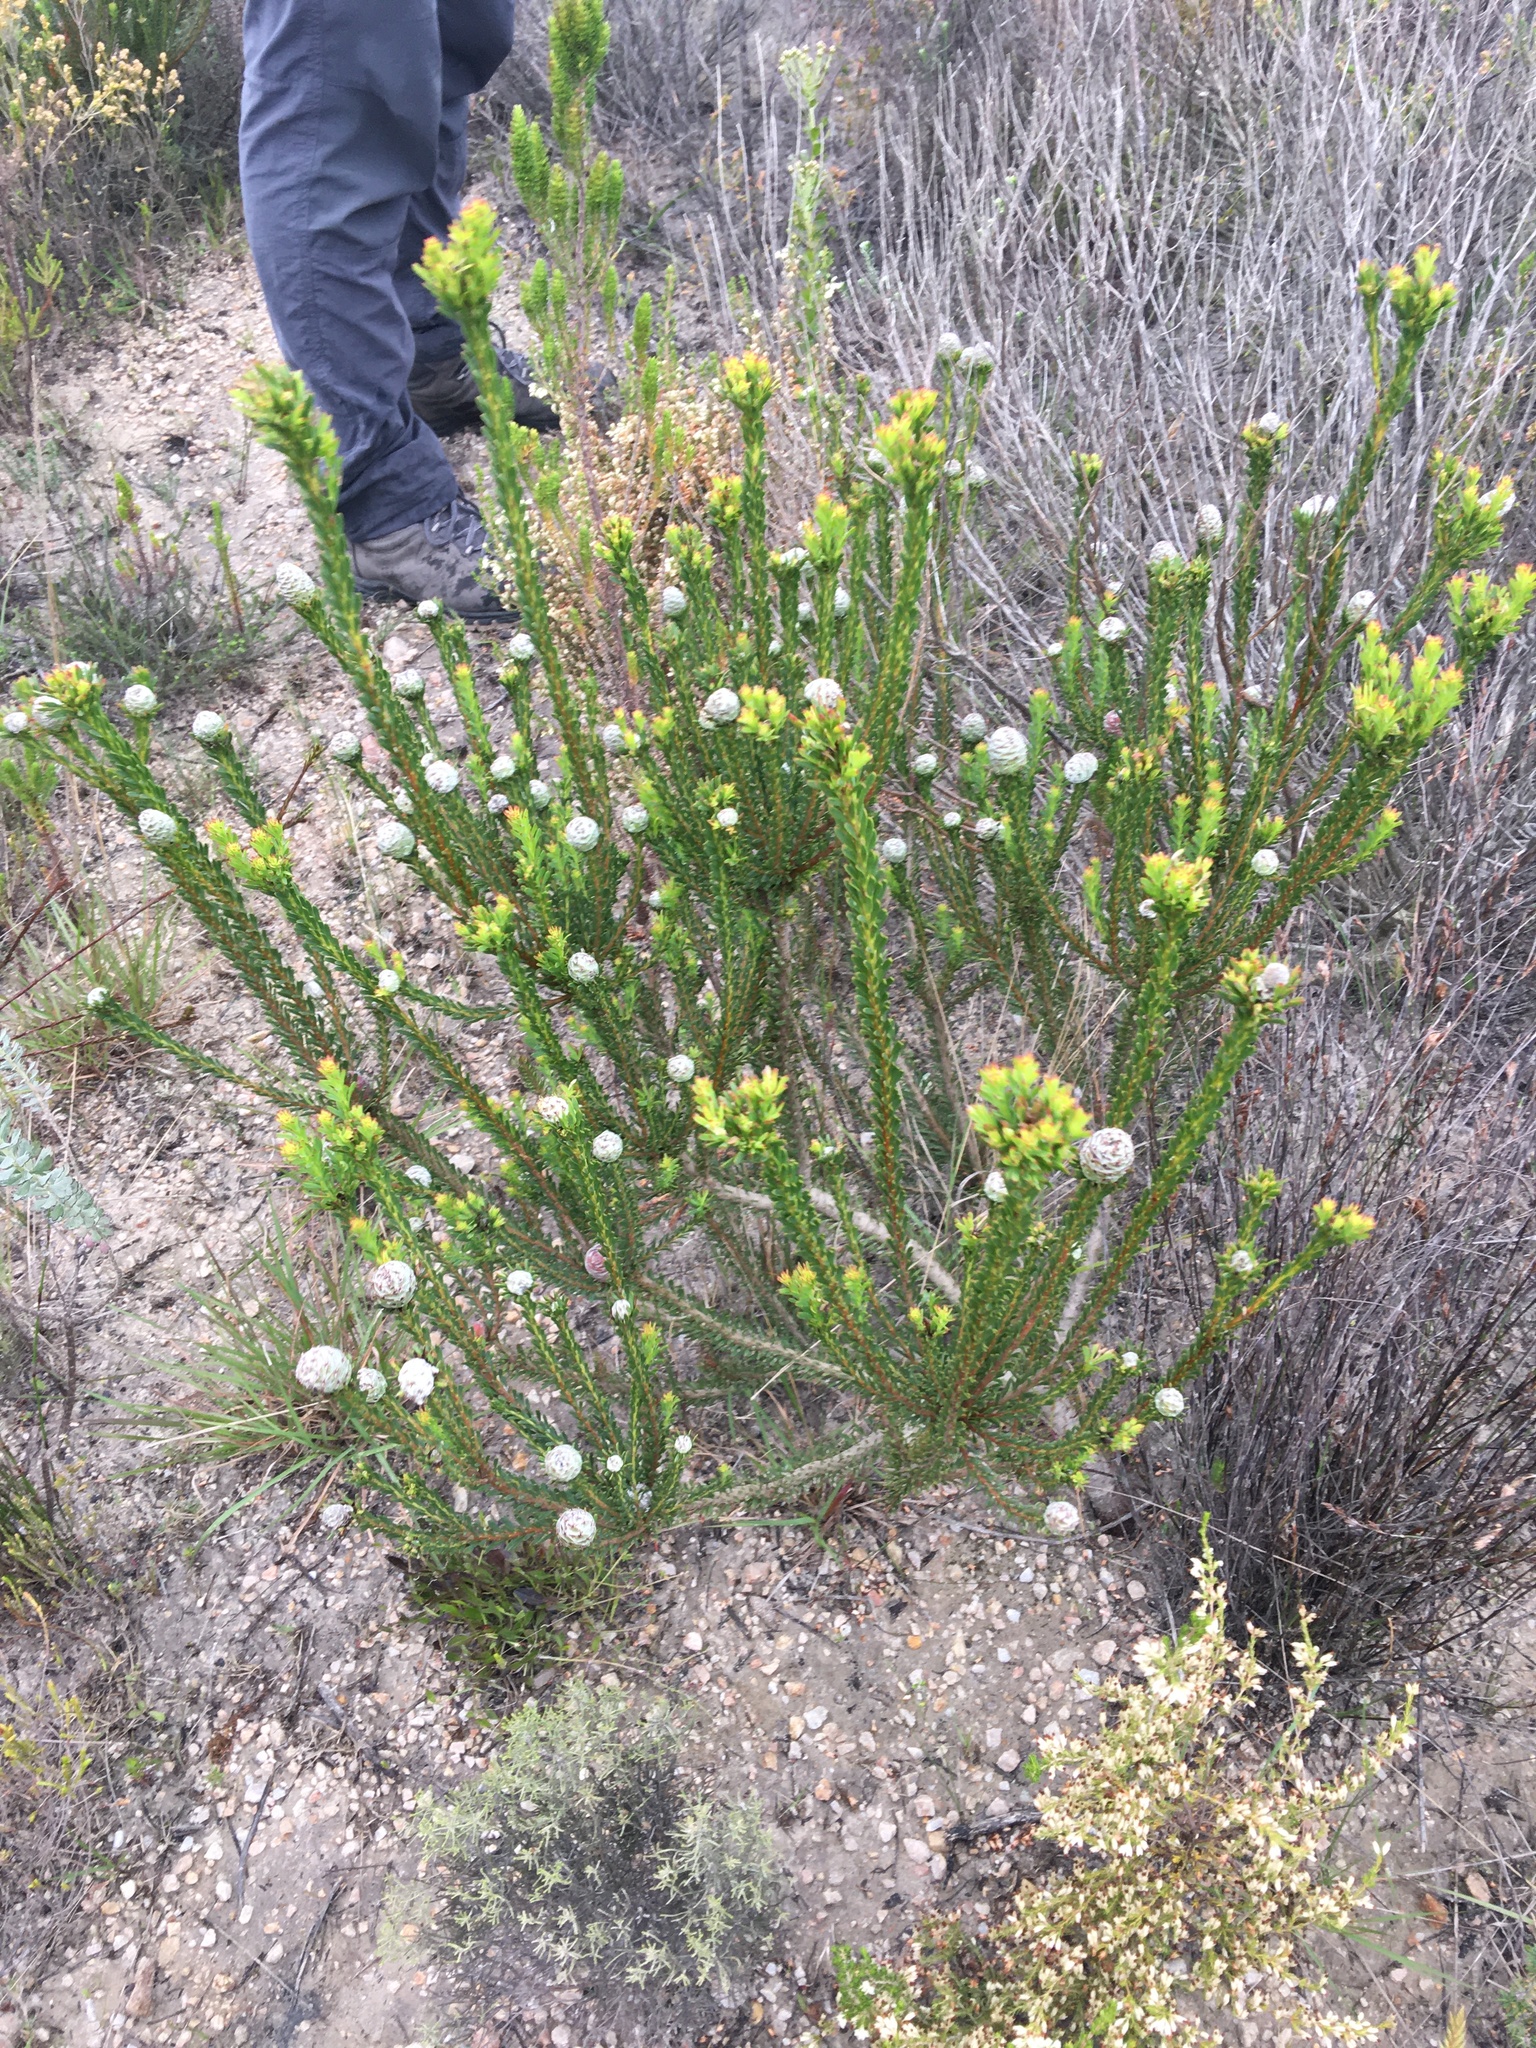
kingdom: Plantae
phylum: Tracheophyta
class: Magnoliopsida
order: Proteales
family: Proteaceae
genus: Leucadendron
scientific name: Leucadendron linifolium
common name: Line-leaf conebush
